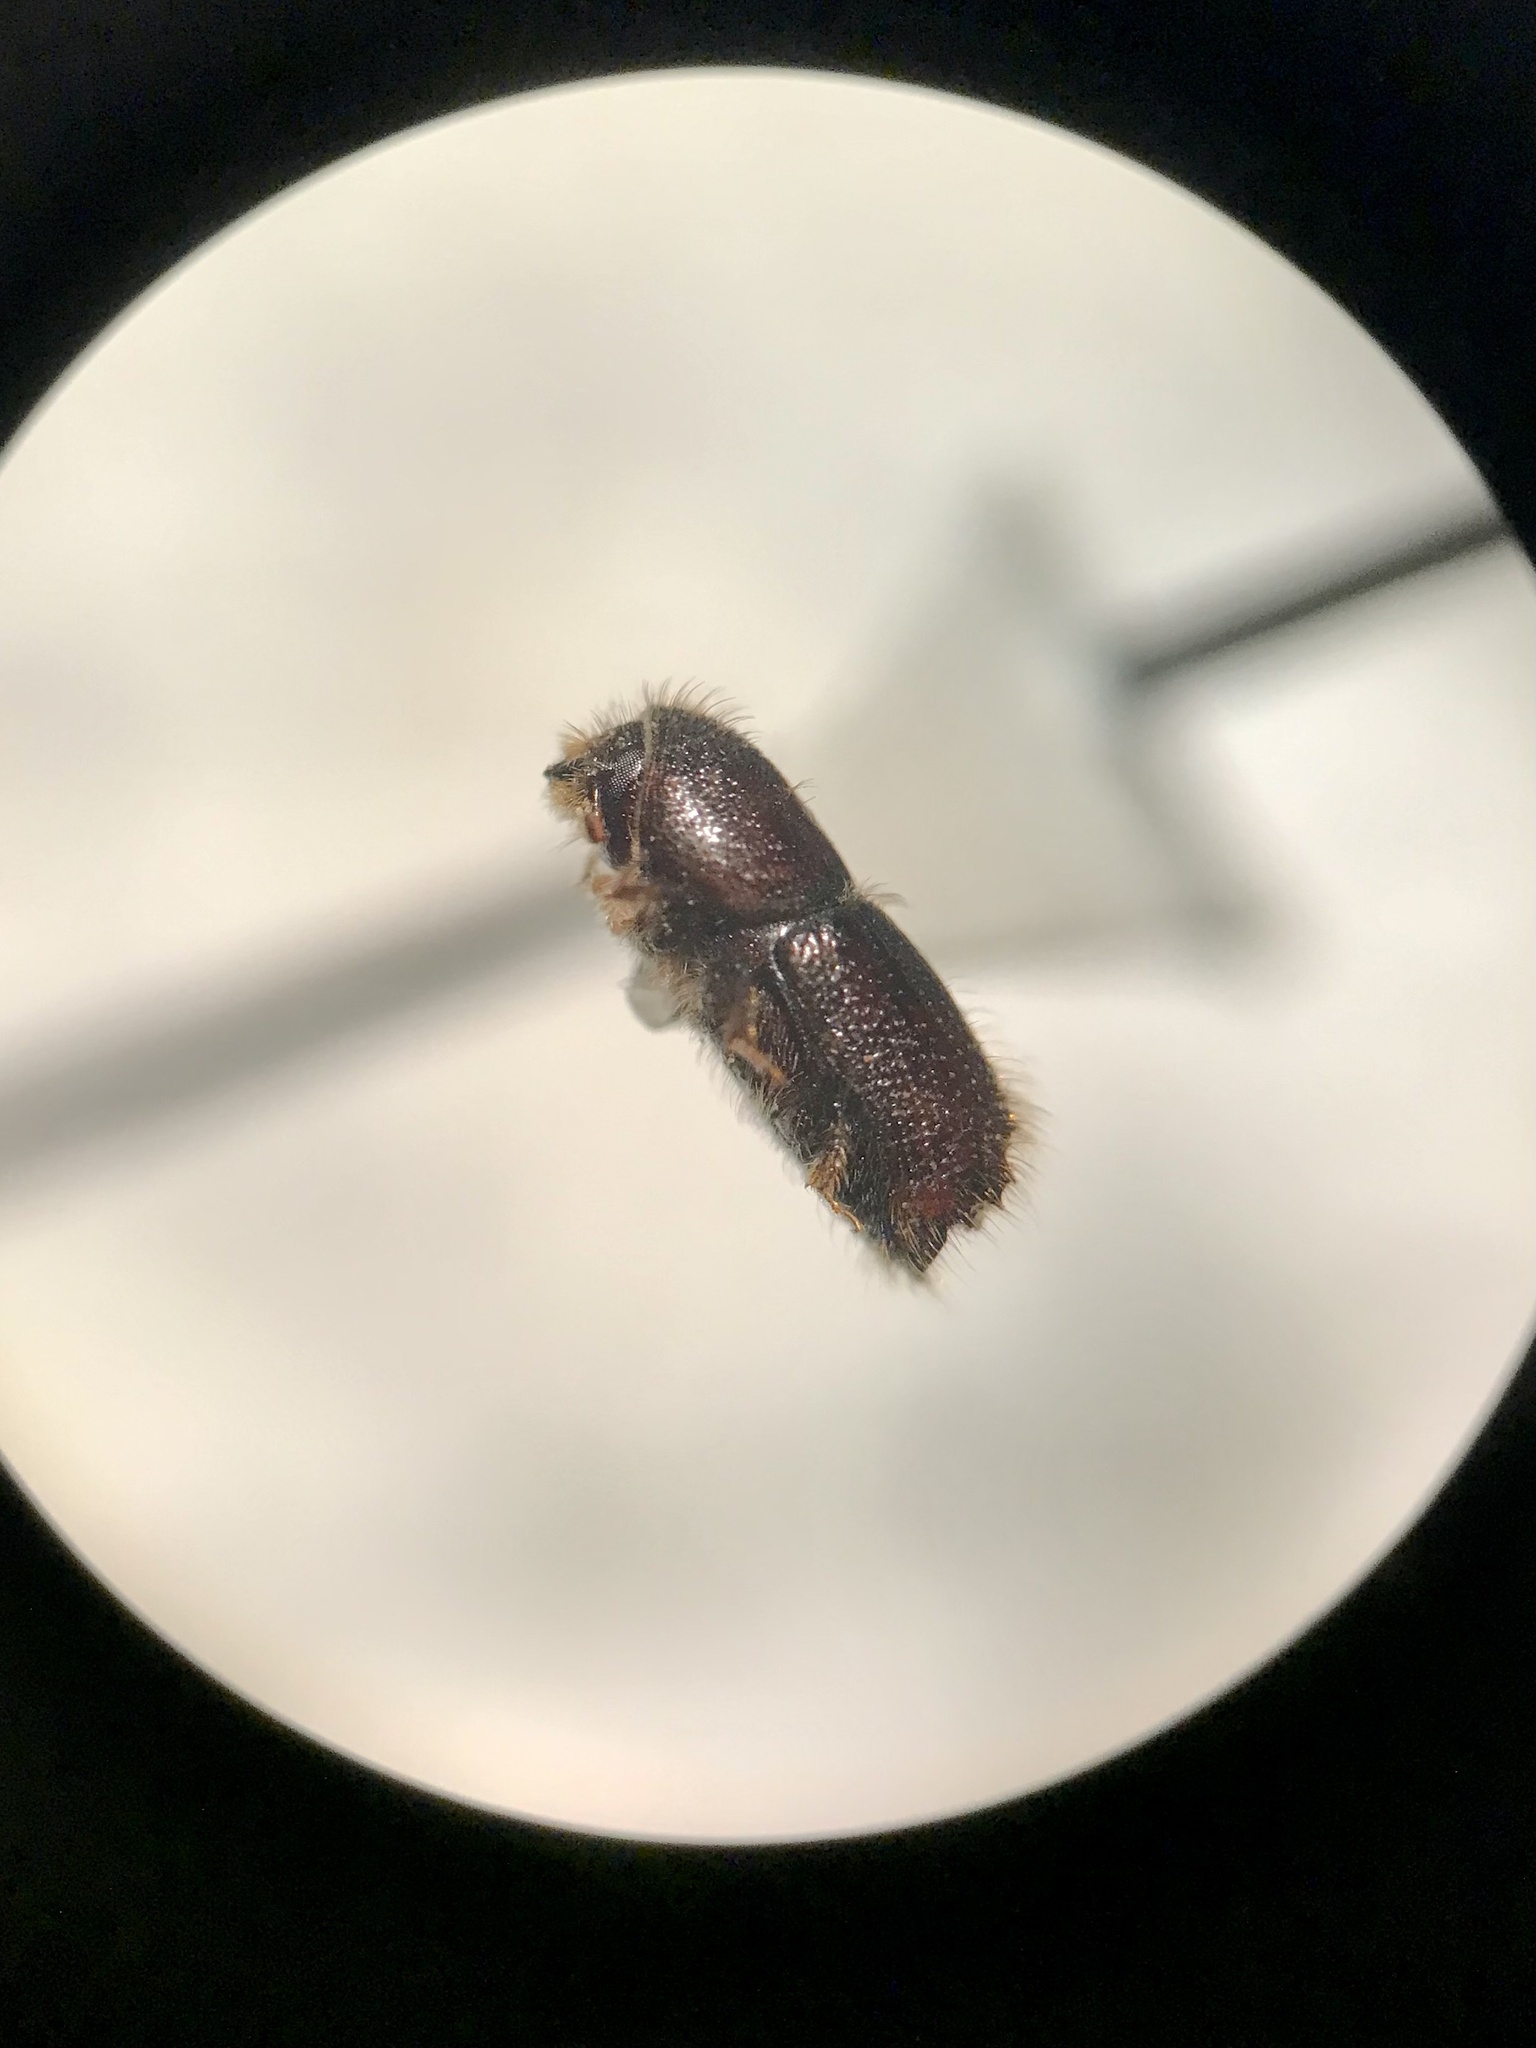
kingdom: Animalia
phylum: Arthropoda
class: Insecta
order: Coleoptera
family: Curculionidae
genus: Ips
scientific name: Ips pini
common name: Pine engraver
